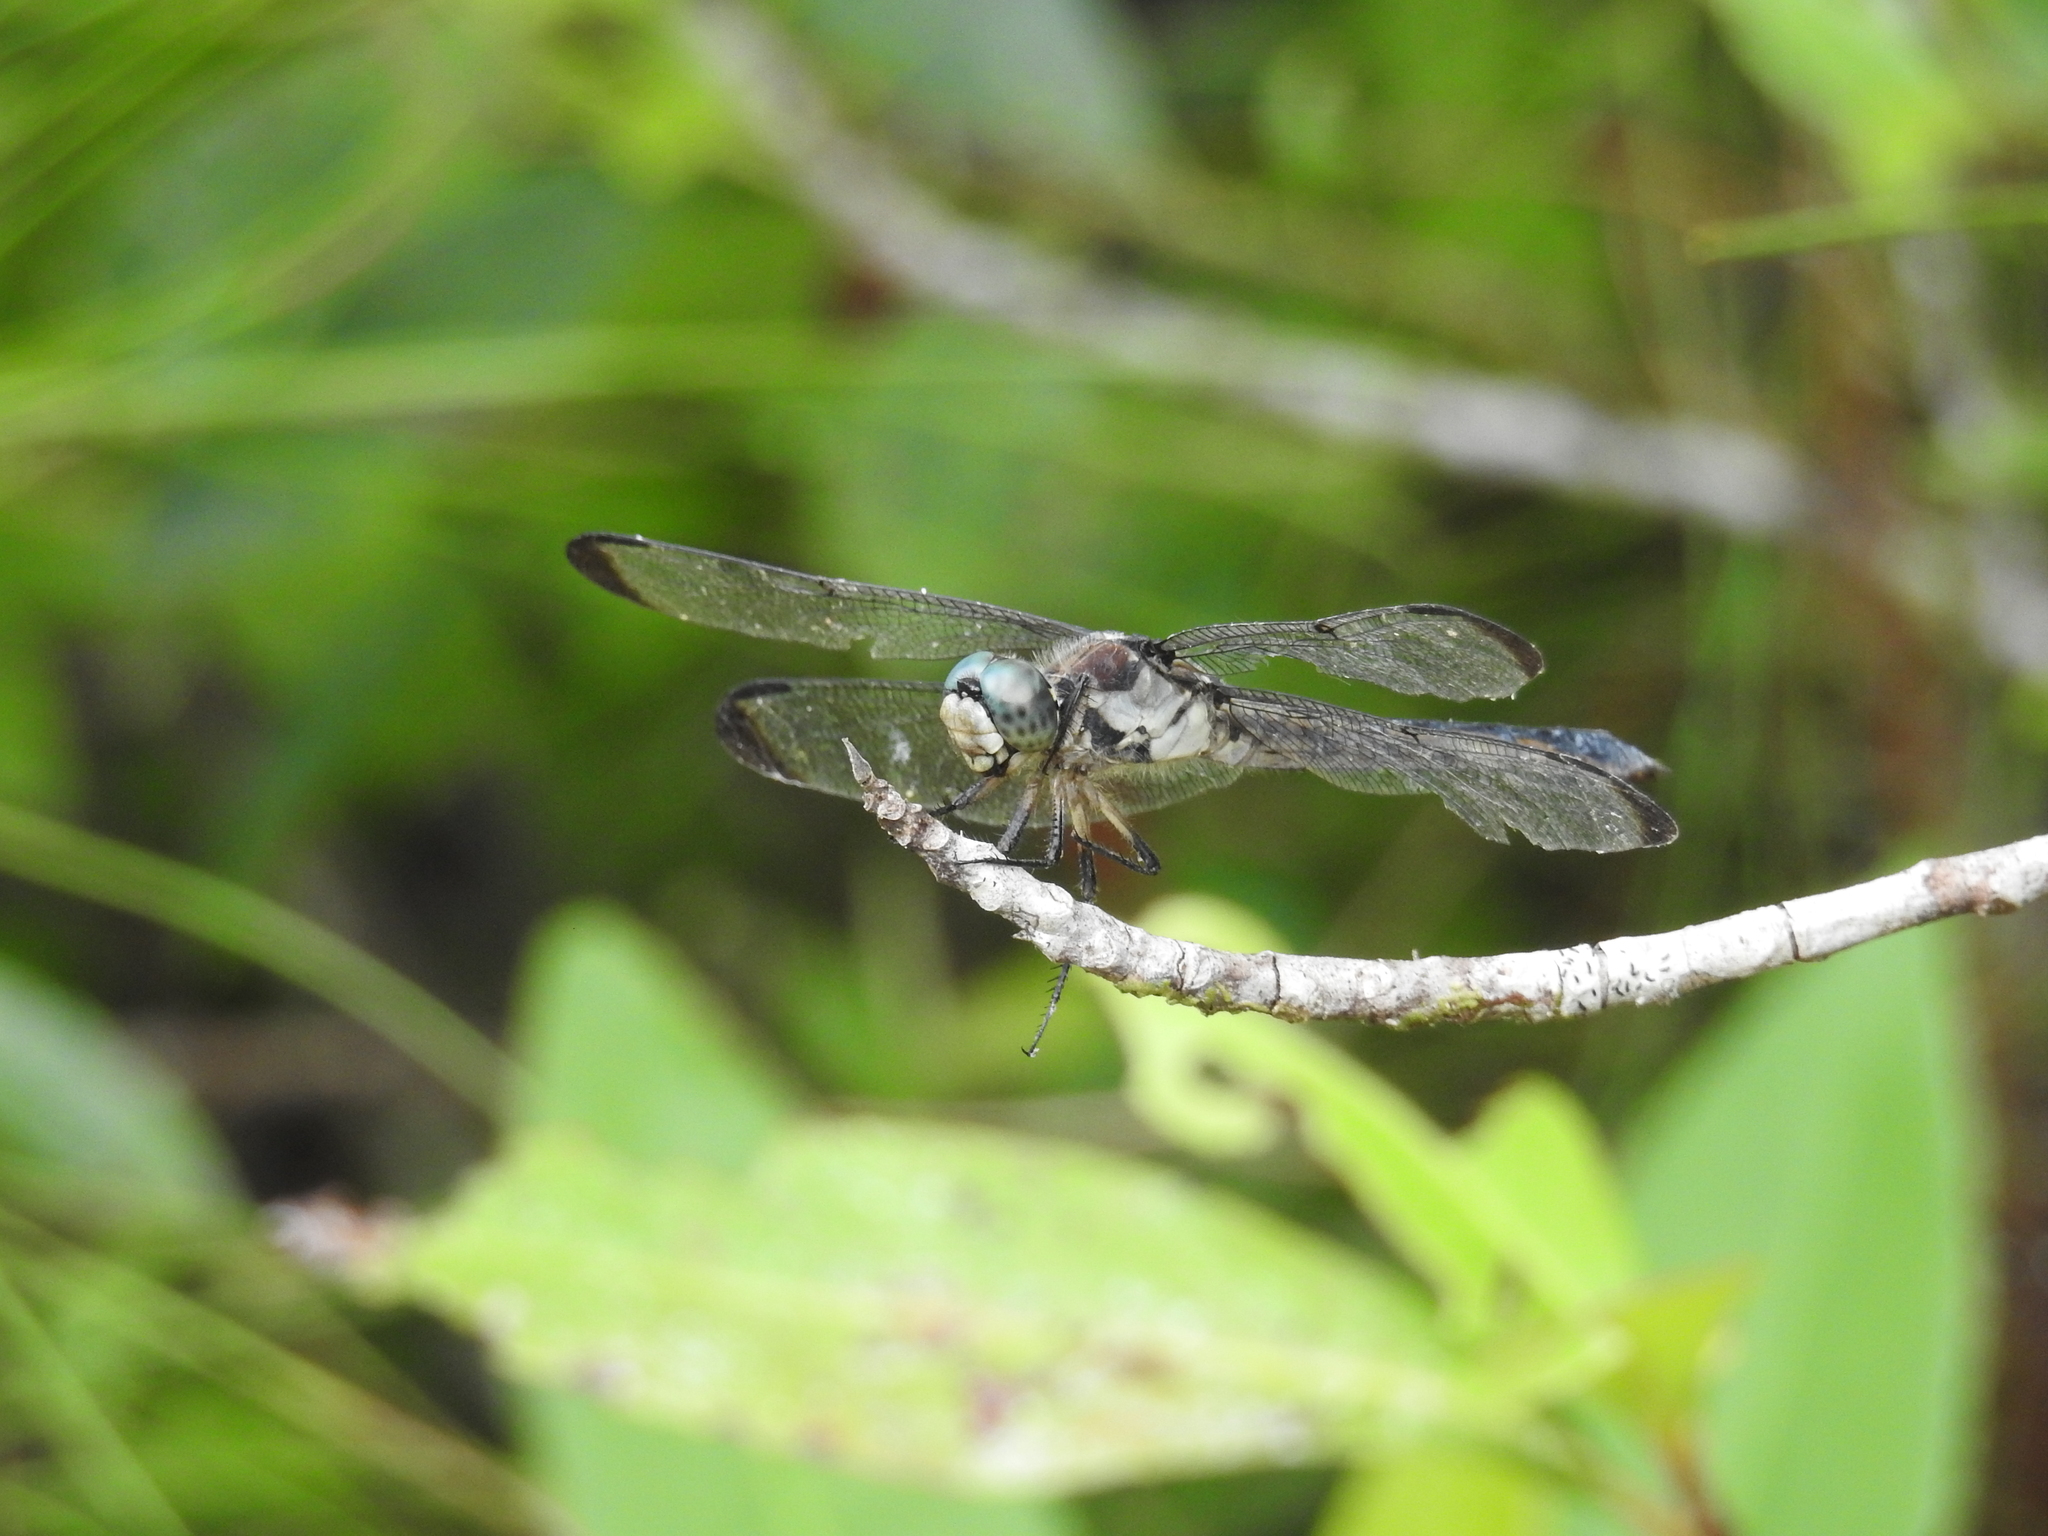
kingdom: Animalia
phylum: Arthropoda
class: Insecta
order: Odonata
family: Libellulidae
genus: Libellula
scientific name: Libellula vibrans
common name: Great blue skimmer
